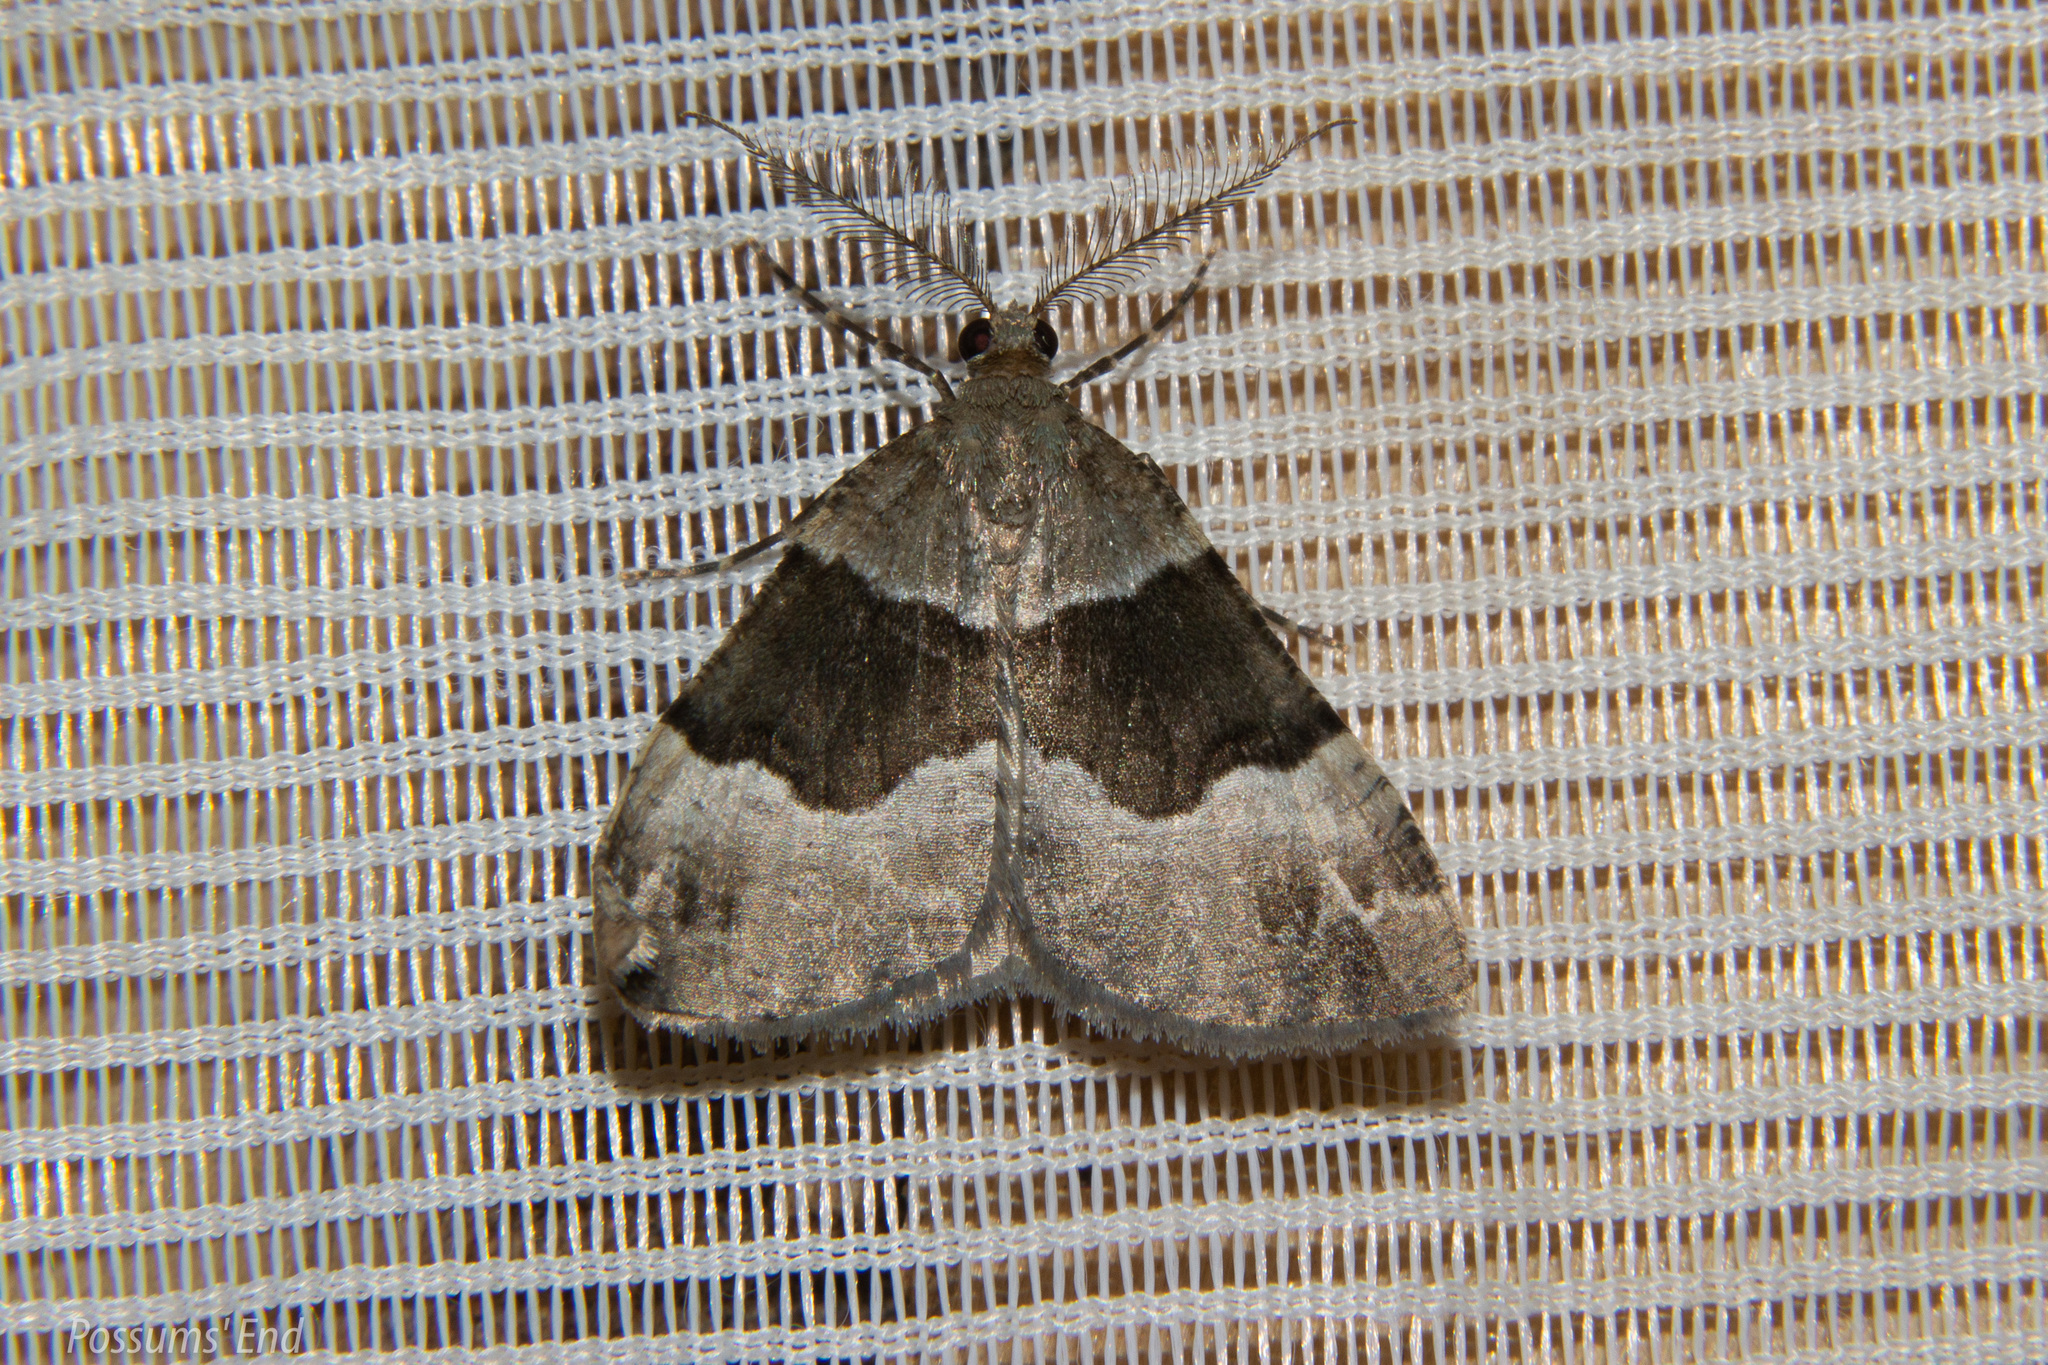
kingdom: Animalia
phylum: Arthropoda
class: Insecta
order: Lepidoptera
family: Geometridae
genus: Pseudocoremia
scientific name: Pseudocoremia
